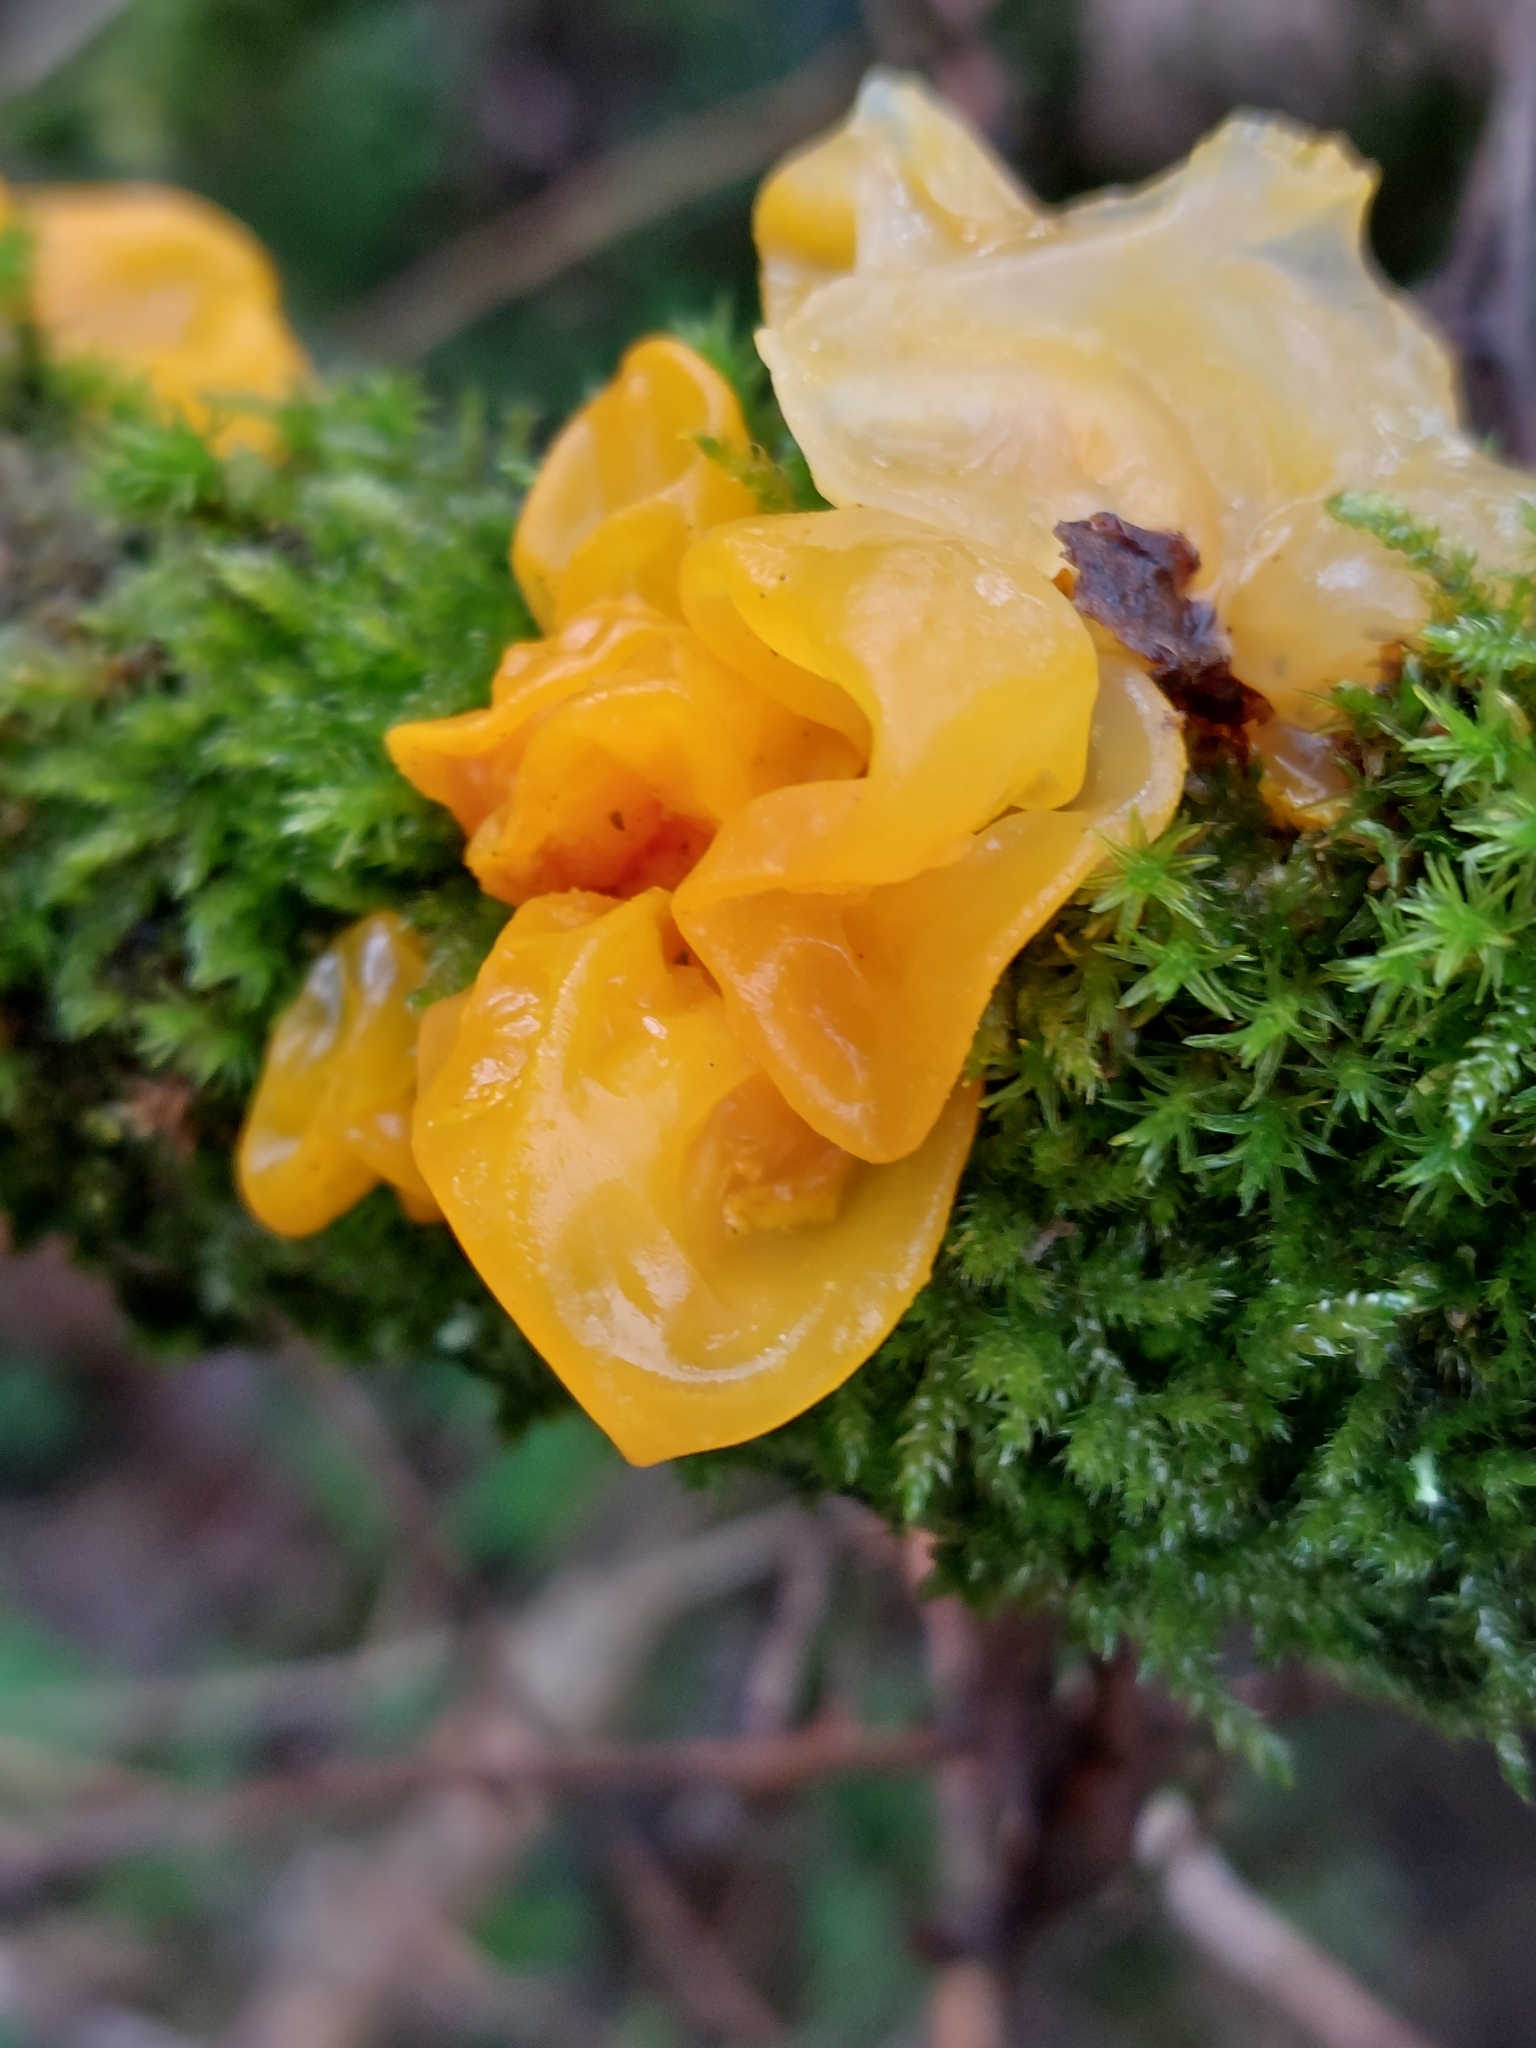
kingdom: Fungi
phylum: Basidiomycota
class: Tremellomycetes
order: Tremellales
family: Tremellaceae
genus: Tremella
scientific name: Tremella mesenterica
